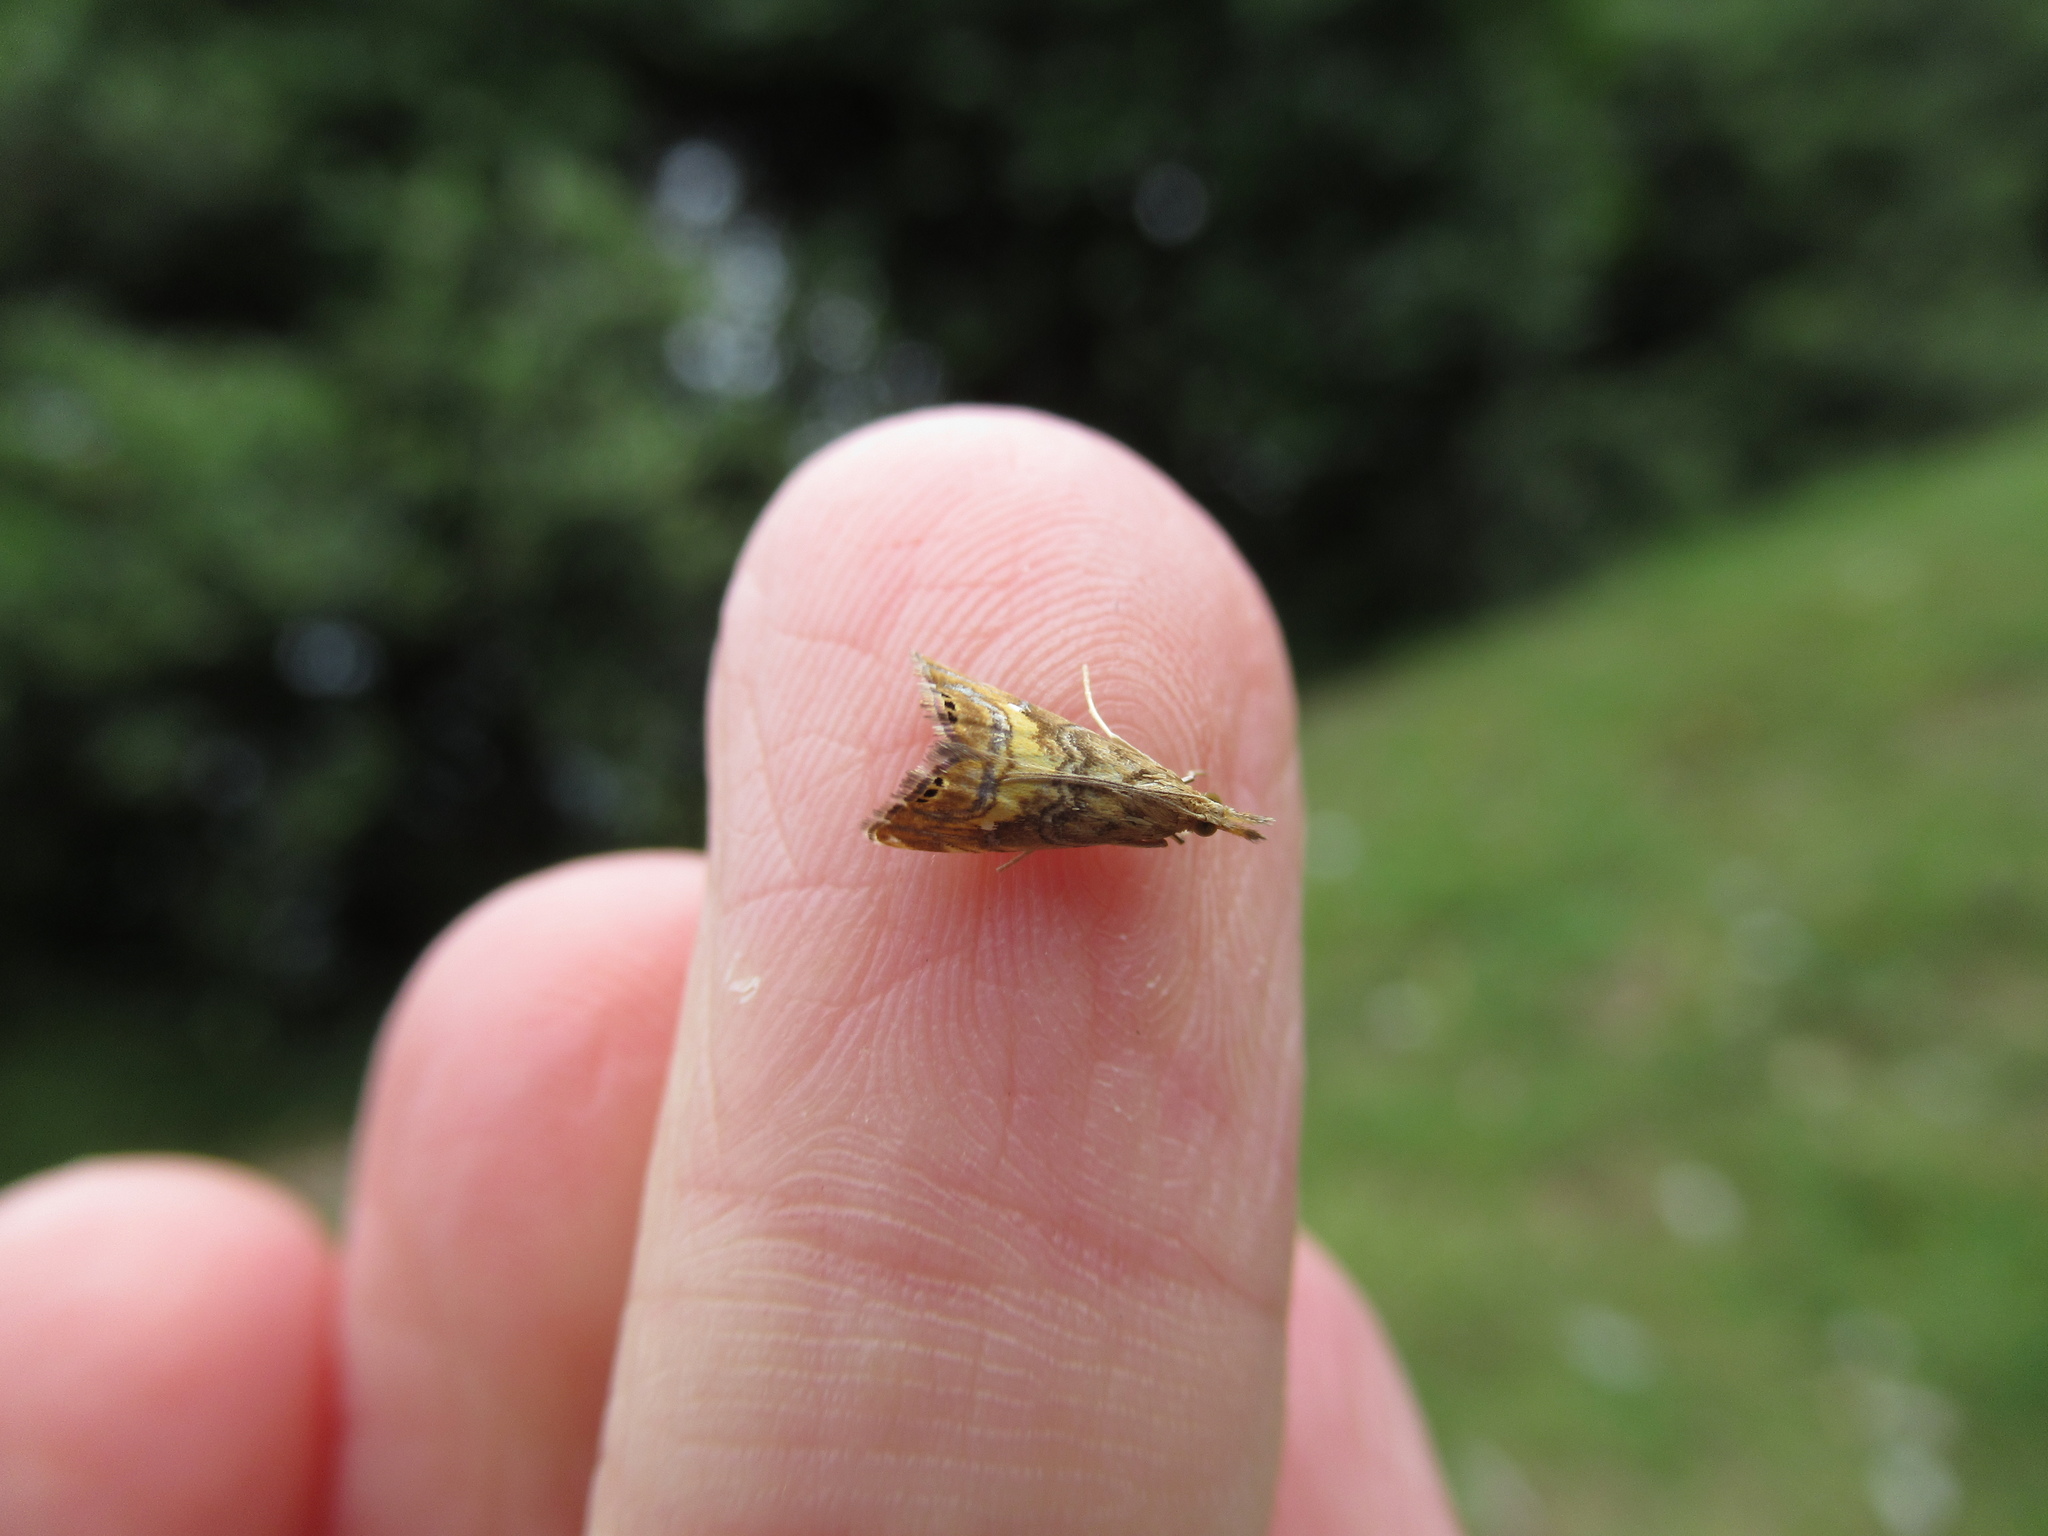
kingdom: Animalia
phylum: Arthropoda
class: Insecta
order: Lepidoptera
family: Crambidae
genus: Glaucocharis
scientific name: Glaucocharis chrysochyta
